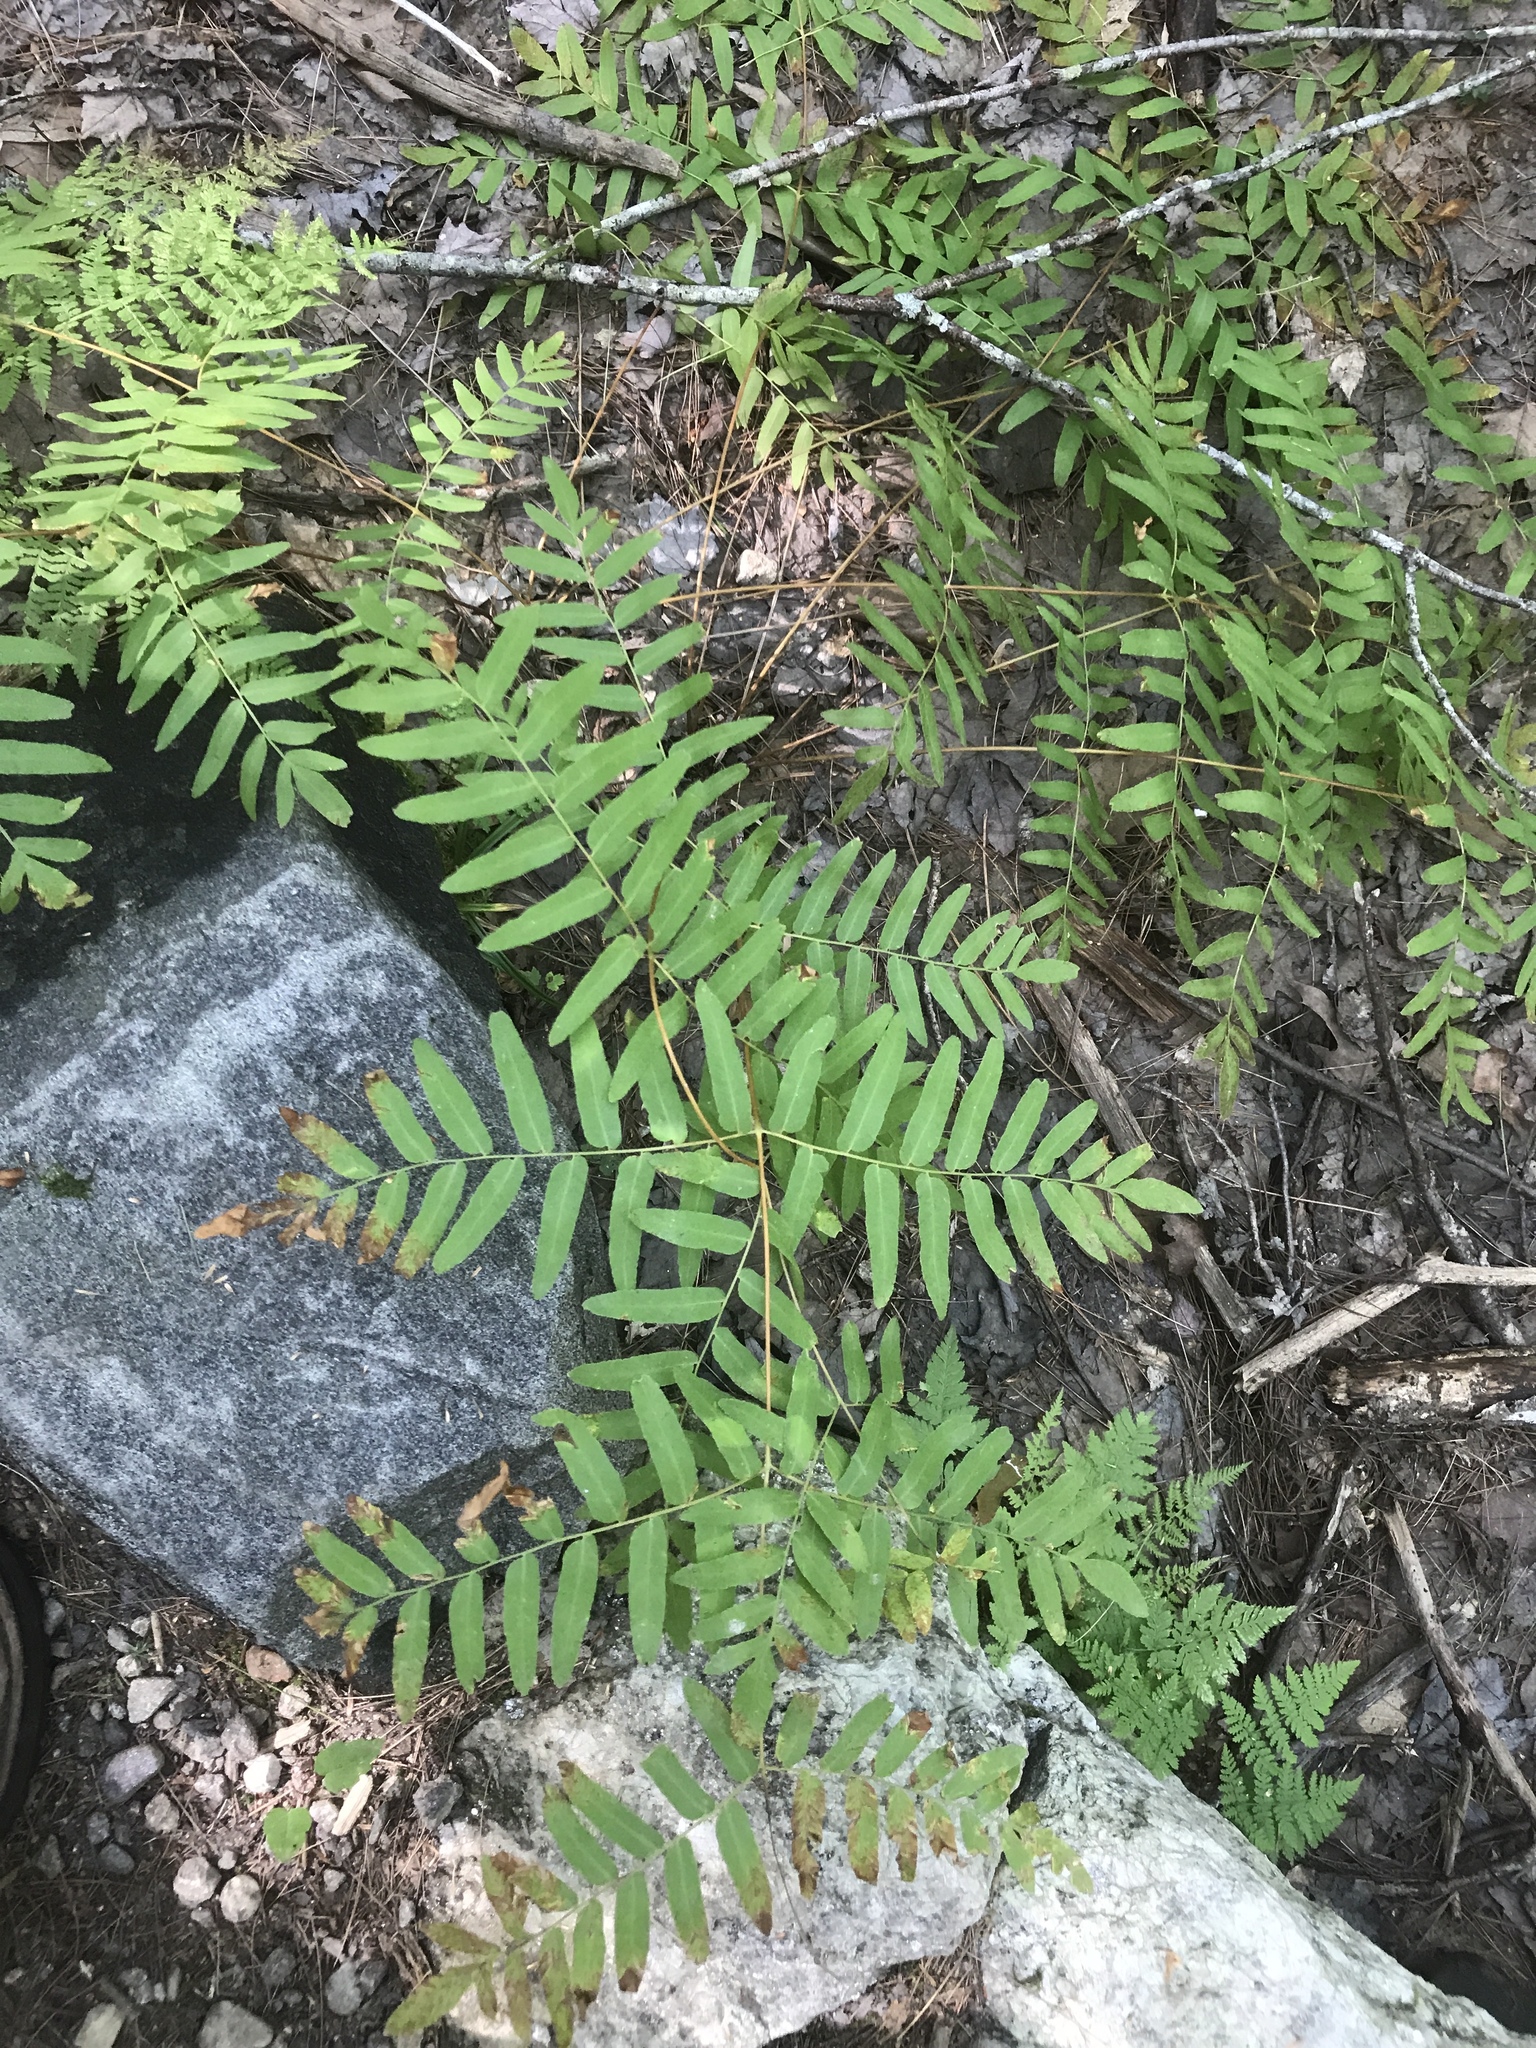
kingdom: Plantae
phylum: Tracheophyta
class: Polypodiopsida
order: Osmundales
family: Osmundaceae
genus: Osmunda
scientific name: Osmunda spectabilis
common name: American royal fern
